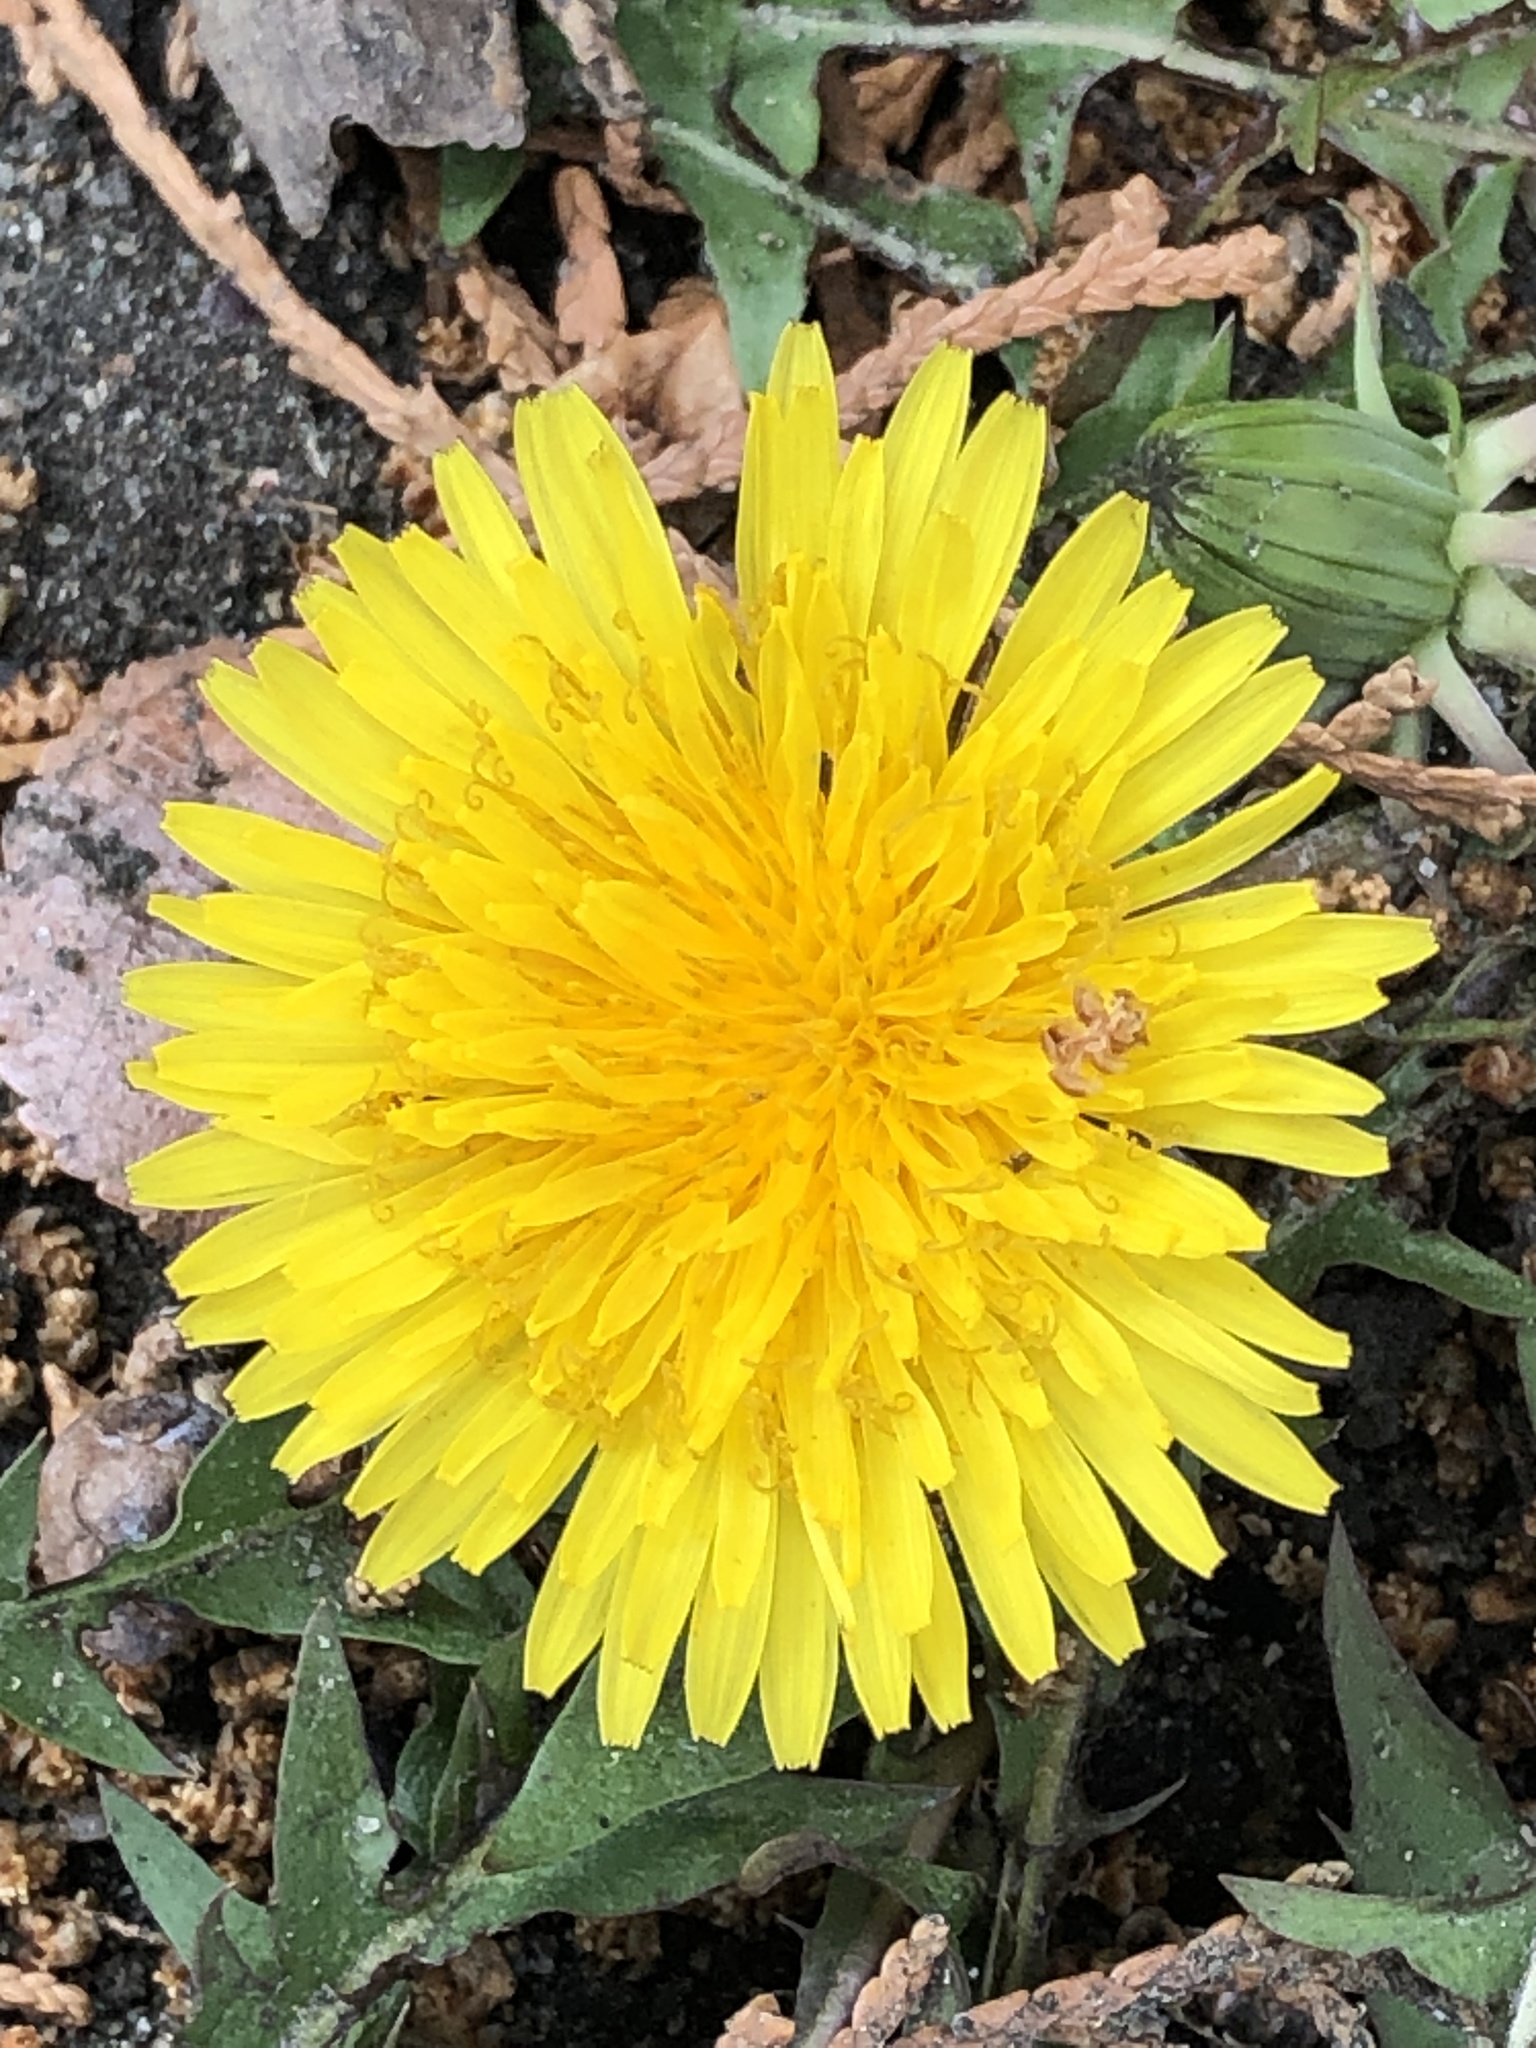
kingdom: Plantae
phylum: Tracheophyta
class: Magnoliopsida
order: Asterales
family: Asteraceae
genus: Taraxacum
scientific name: Taraxacum officinale
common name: Common dandelion
